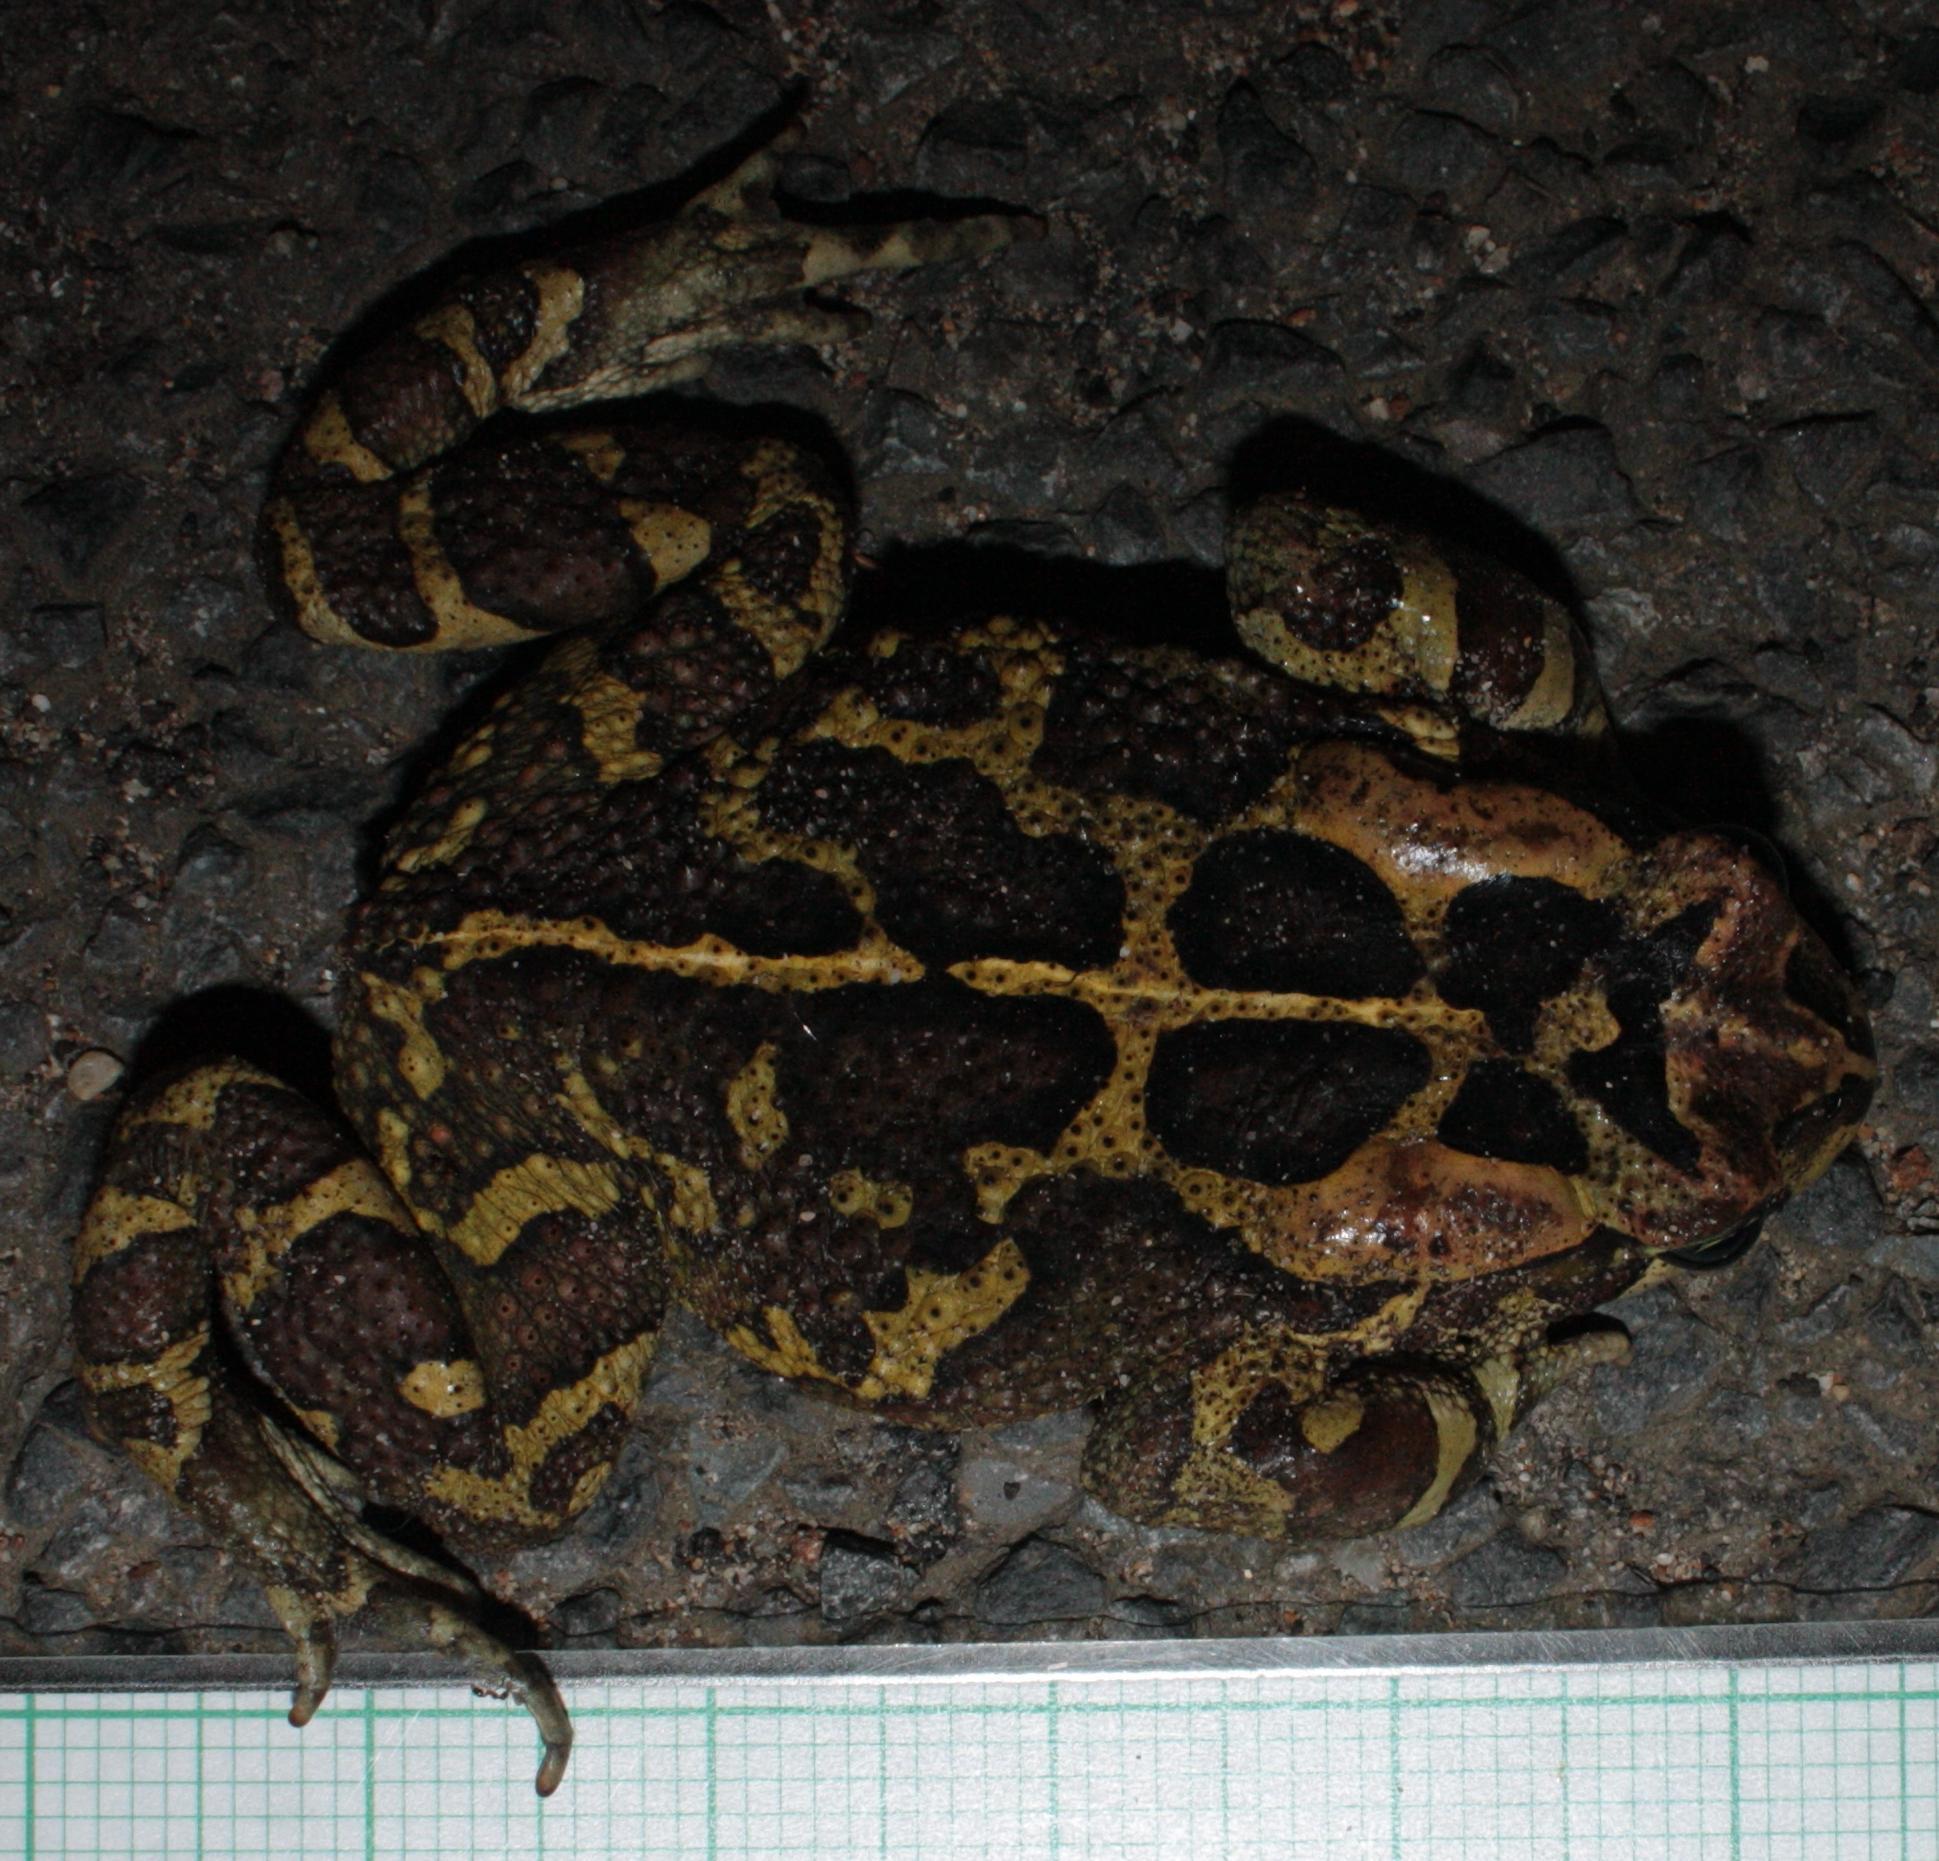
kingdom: Animalia
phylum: Chordata
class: Amphibia
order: Anura
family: Bufonidae
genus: Sclerophrys
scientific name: Sclerophrys pantherina
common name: Panther toad
